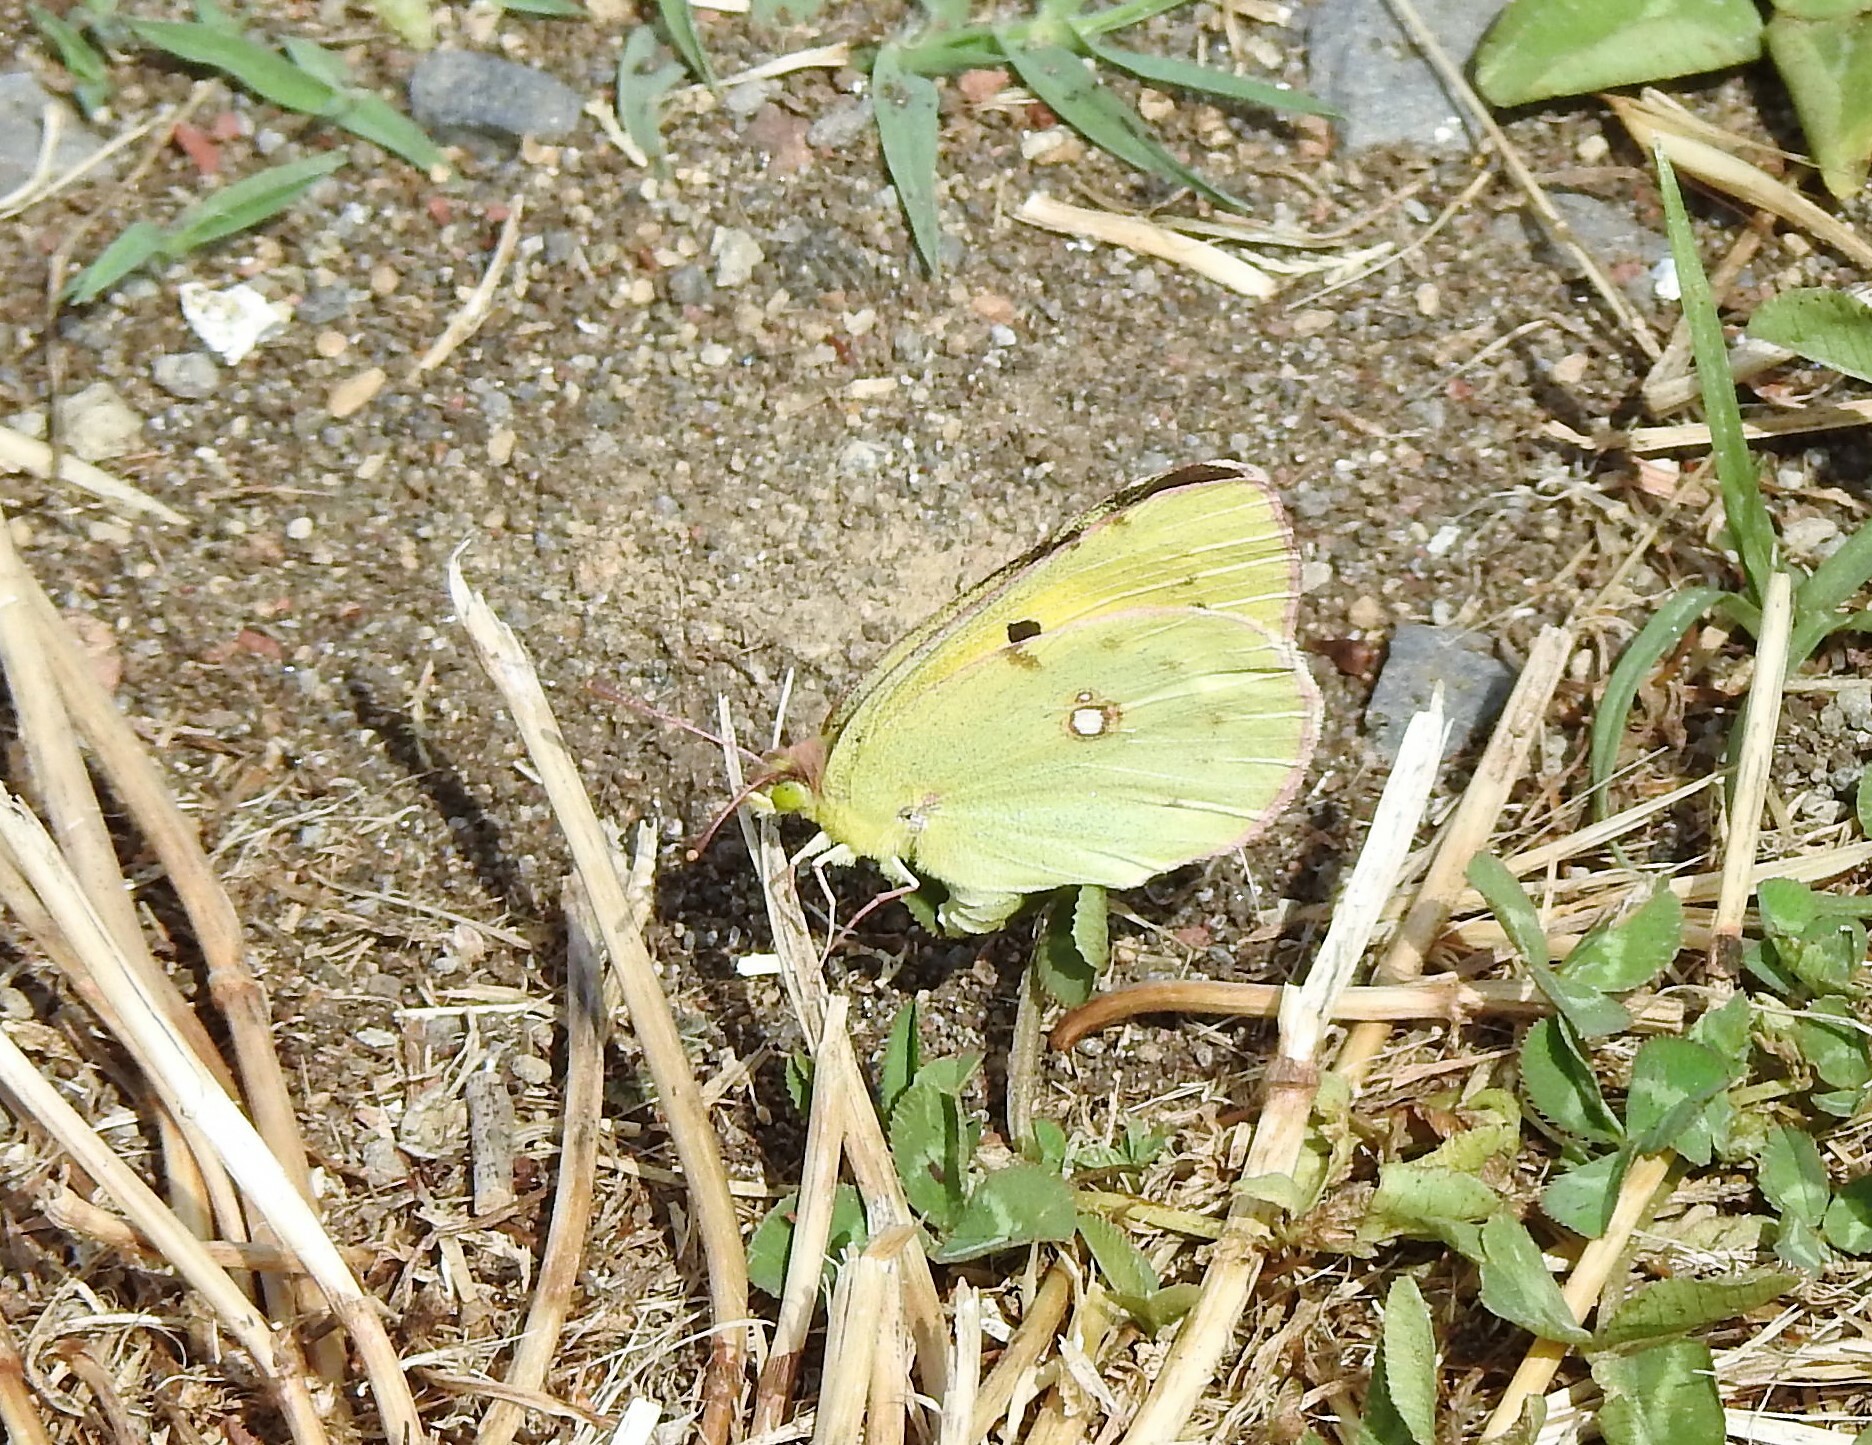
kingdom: Animalia
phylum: Arthropoda
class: Insecta
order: Lepidoptera
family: Pieridae
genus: Colias
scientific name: Colias croceus
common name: Clouded yellow
